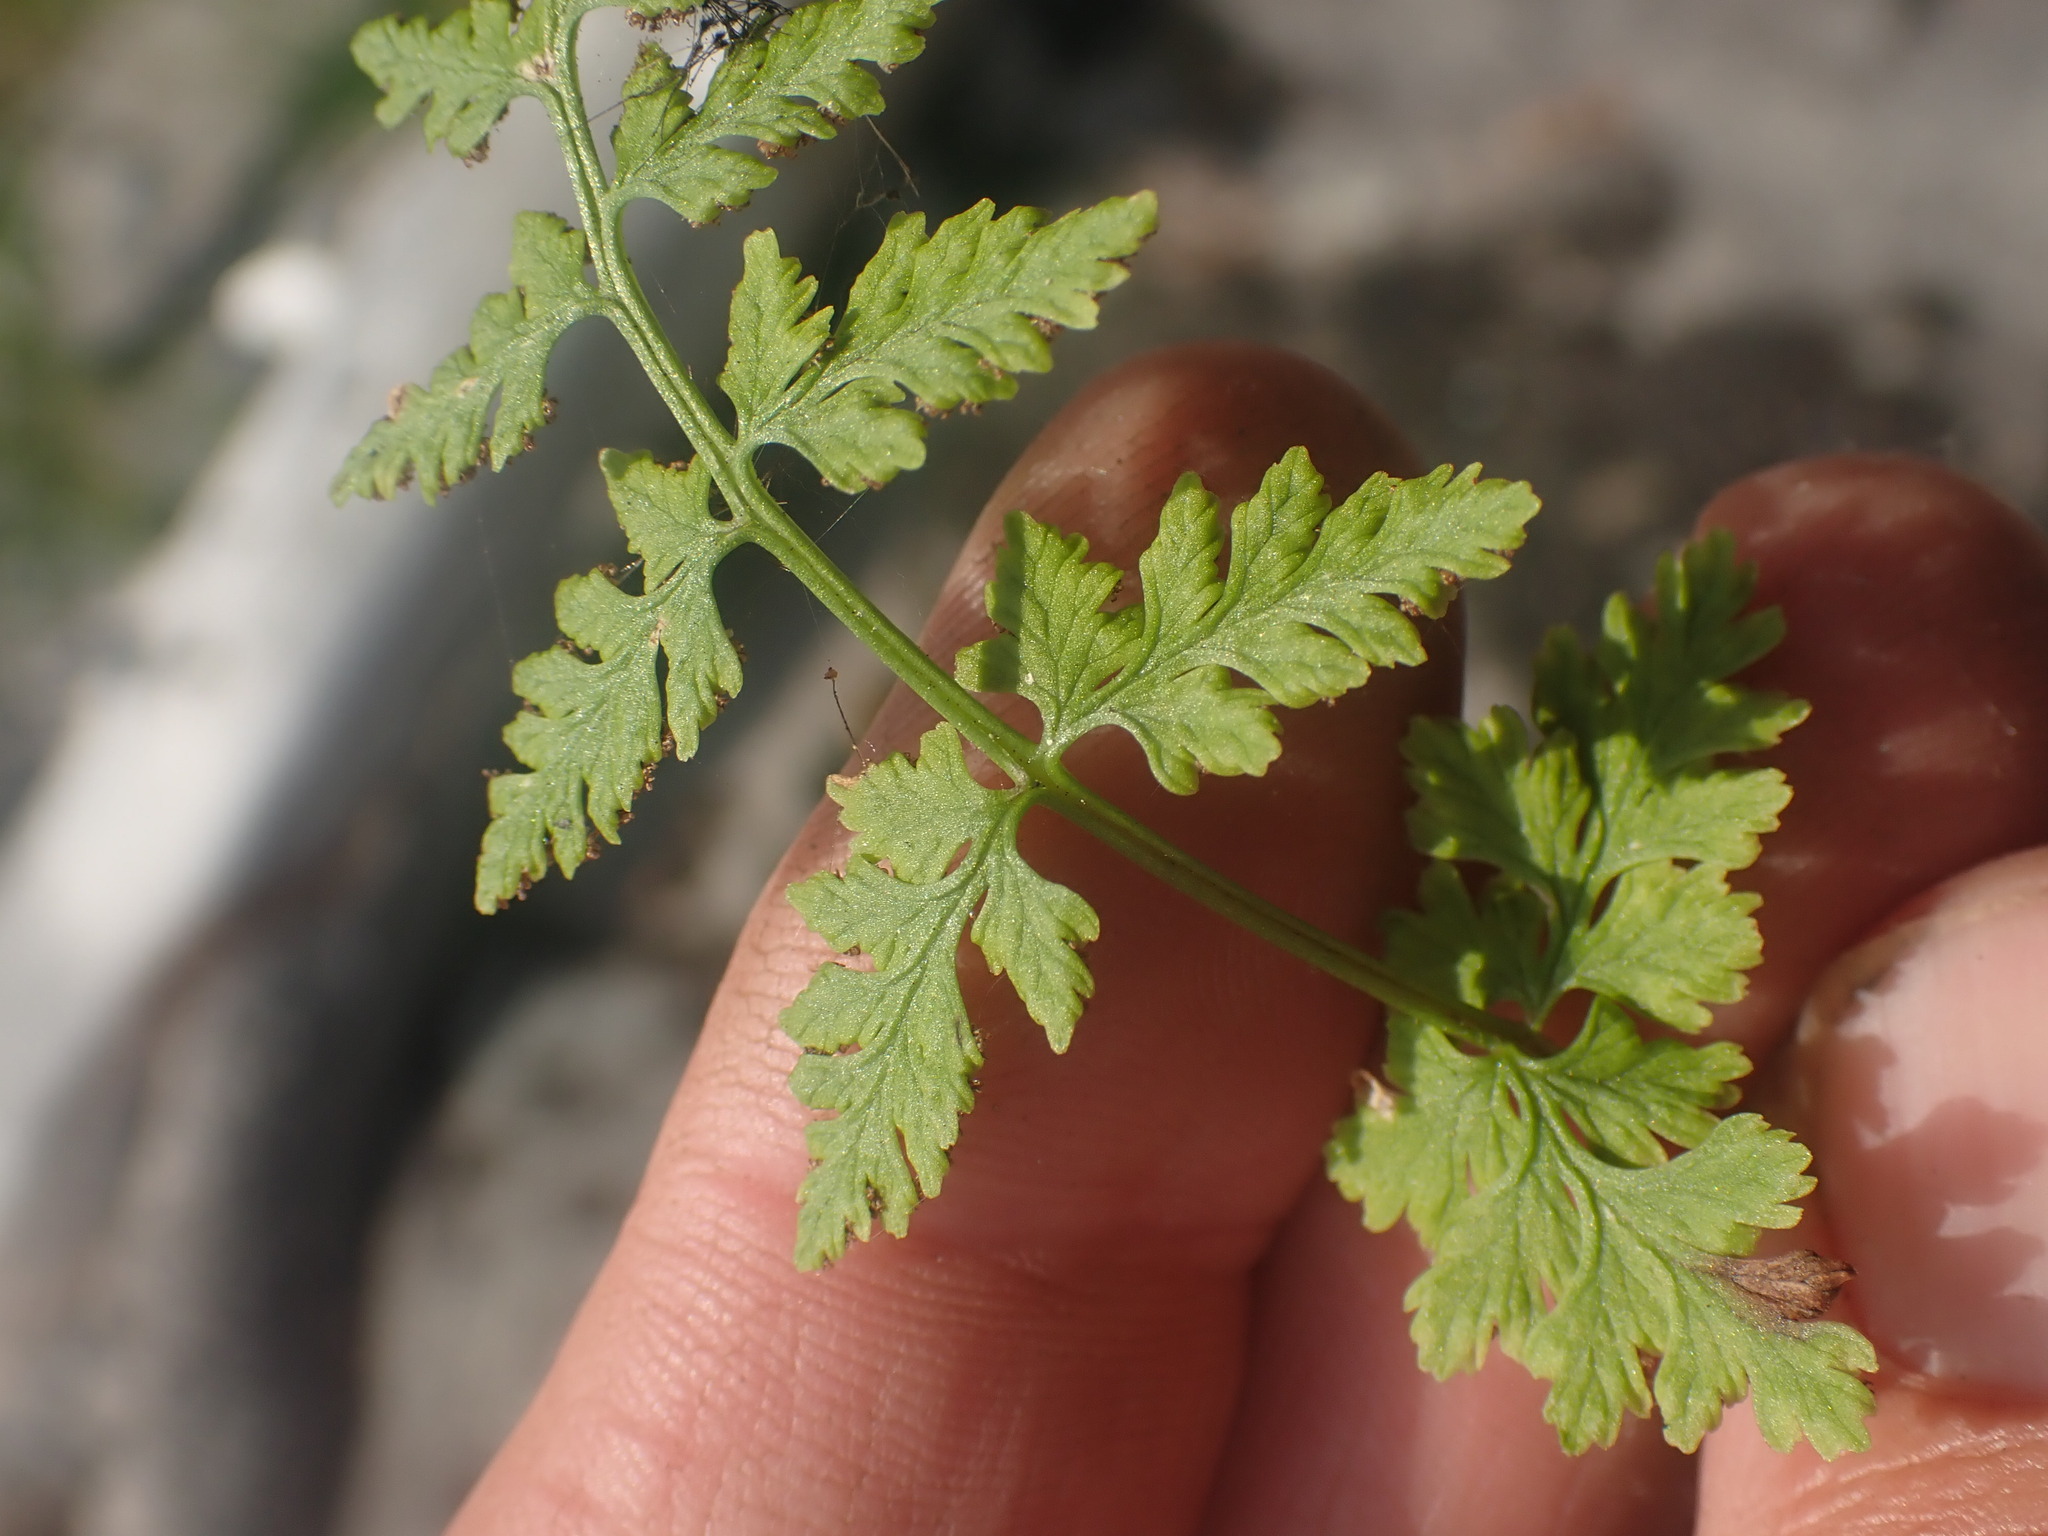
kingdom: Plantae
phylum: Tracheophyta
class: Polypodiopsida
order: Polypodiales
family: Cystopteridaceae
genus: Cystopteris
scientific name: Cystopteris fragilis
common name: Brittle bladder fern
